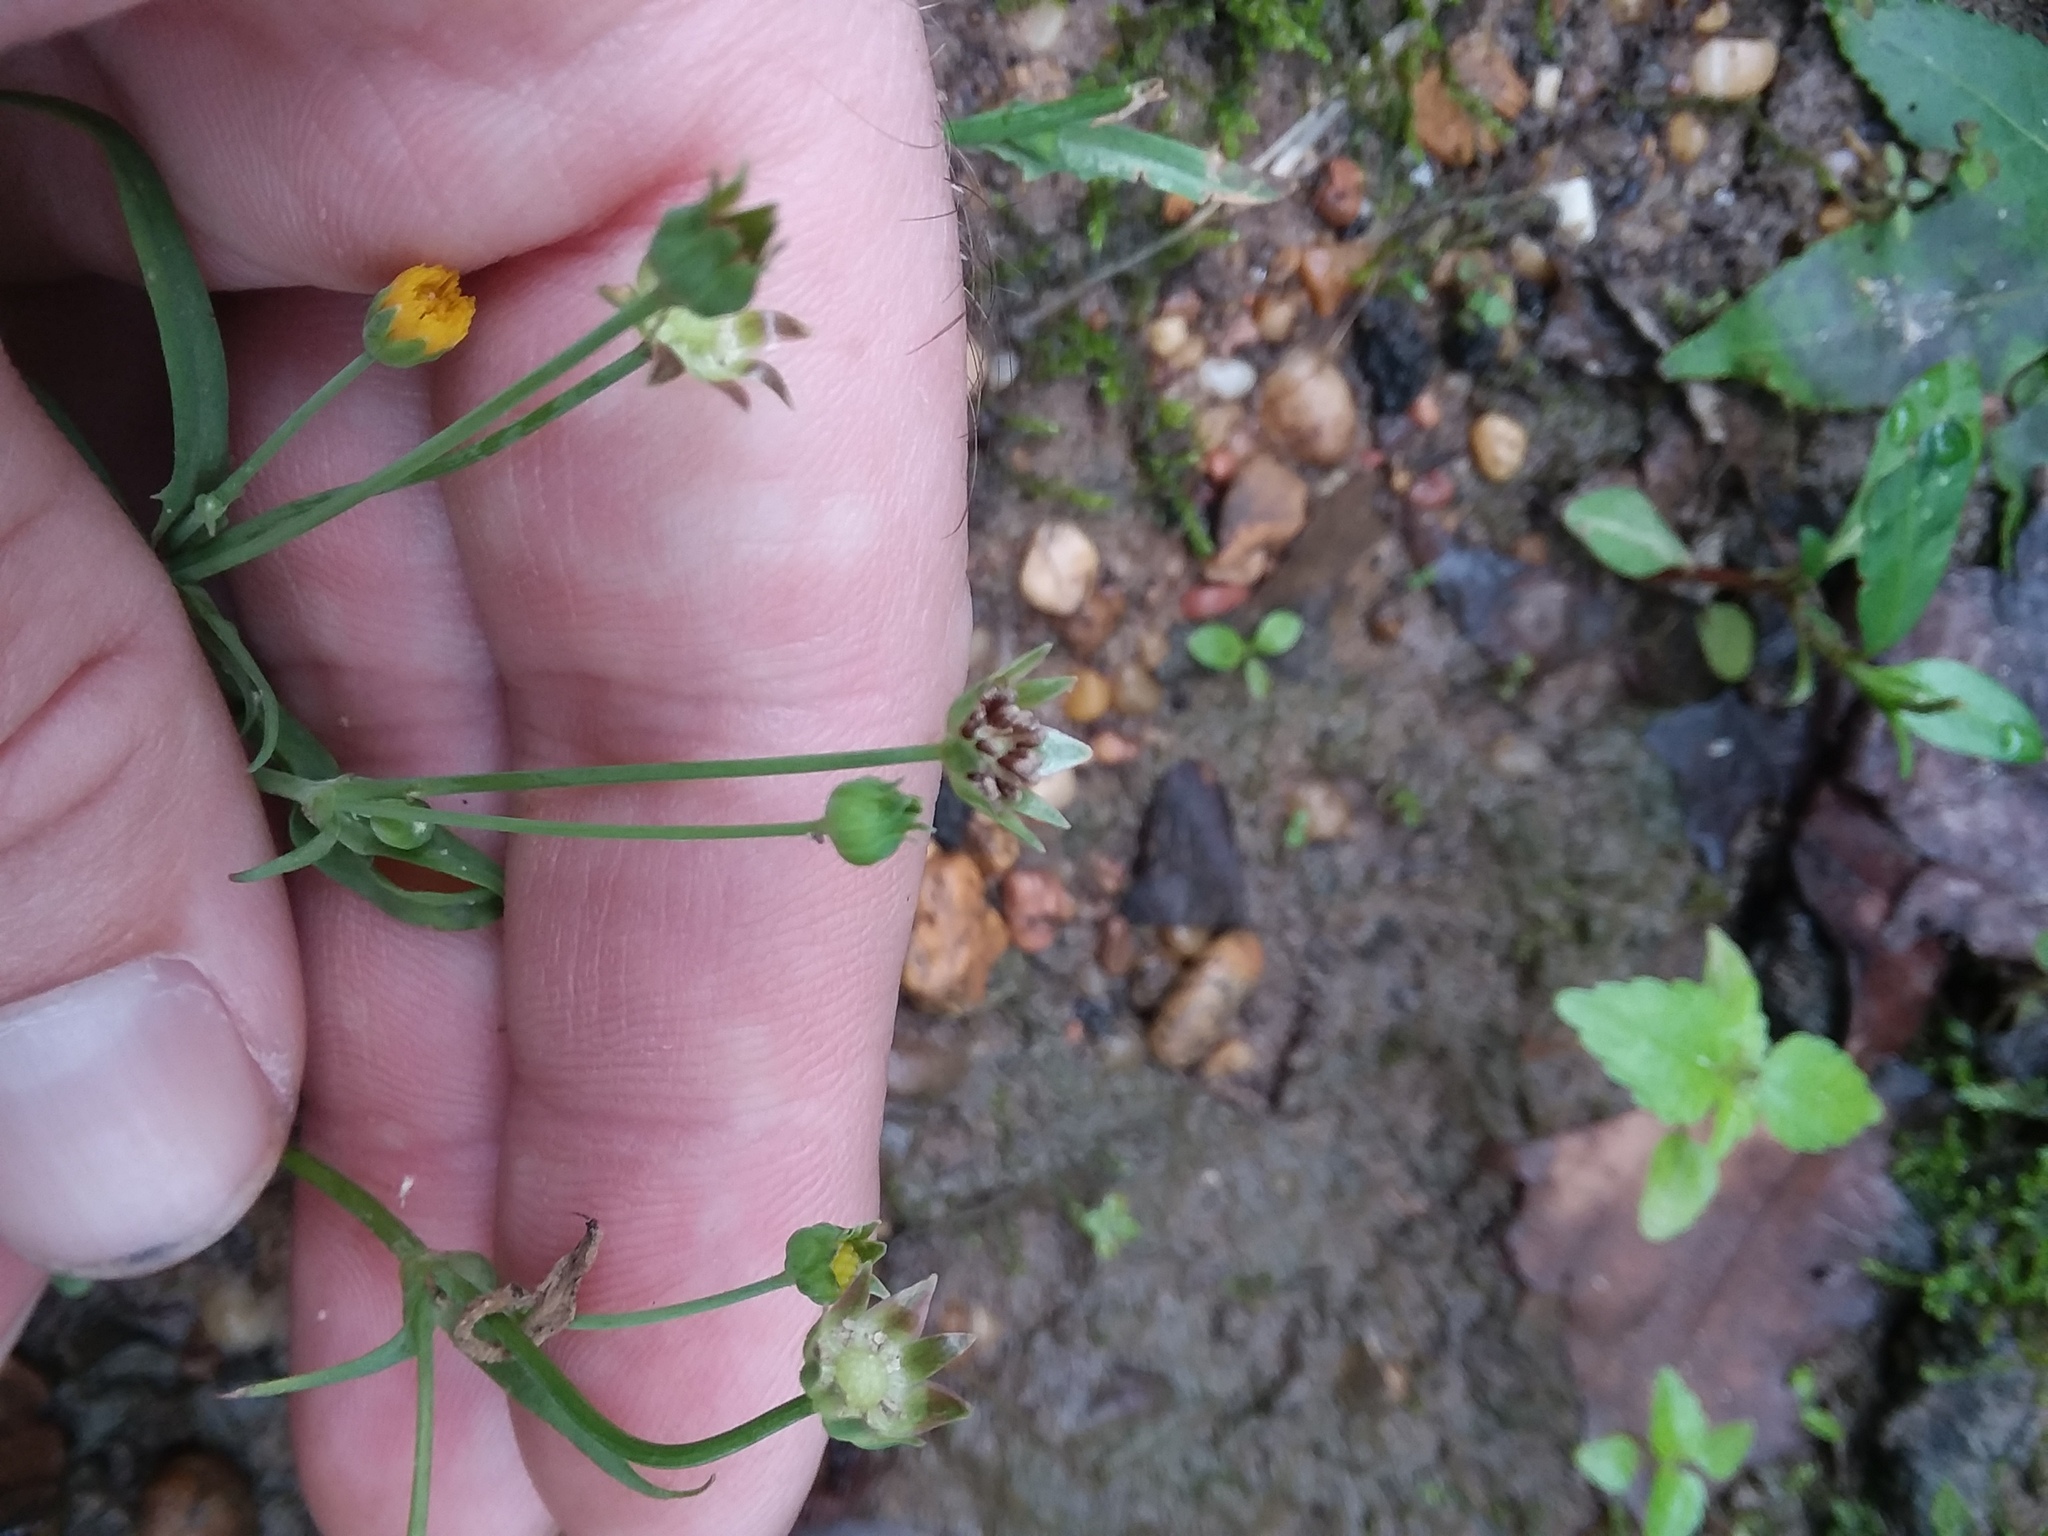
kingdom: Plantae
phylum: Tracheophyta
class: Magnoliopsida
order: Asterales
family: Asteraceae
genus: Krigia
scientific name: Krigia cespitosa
